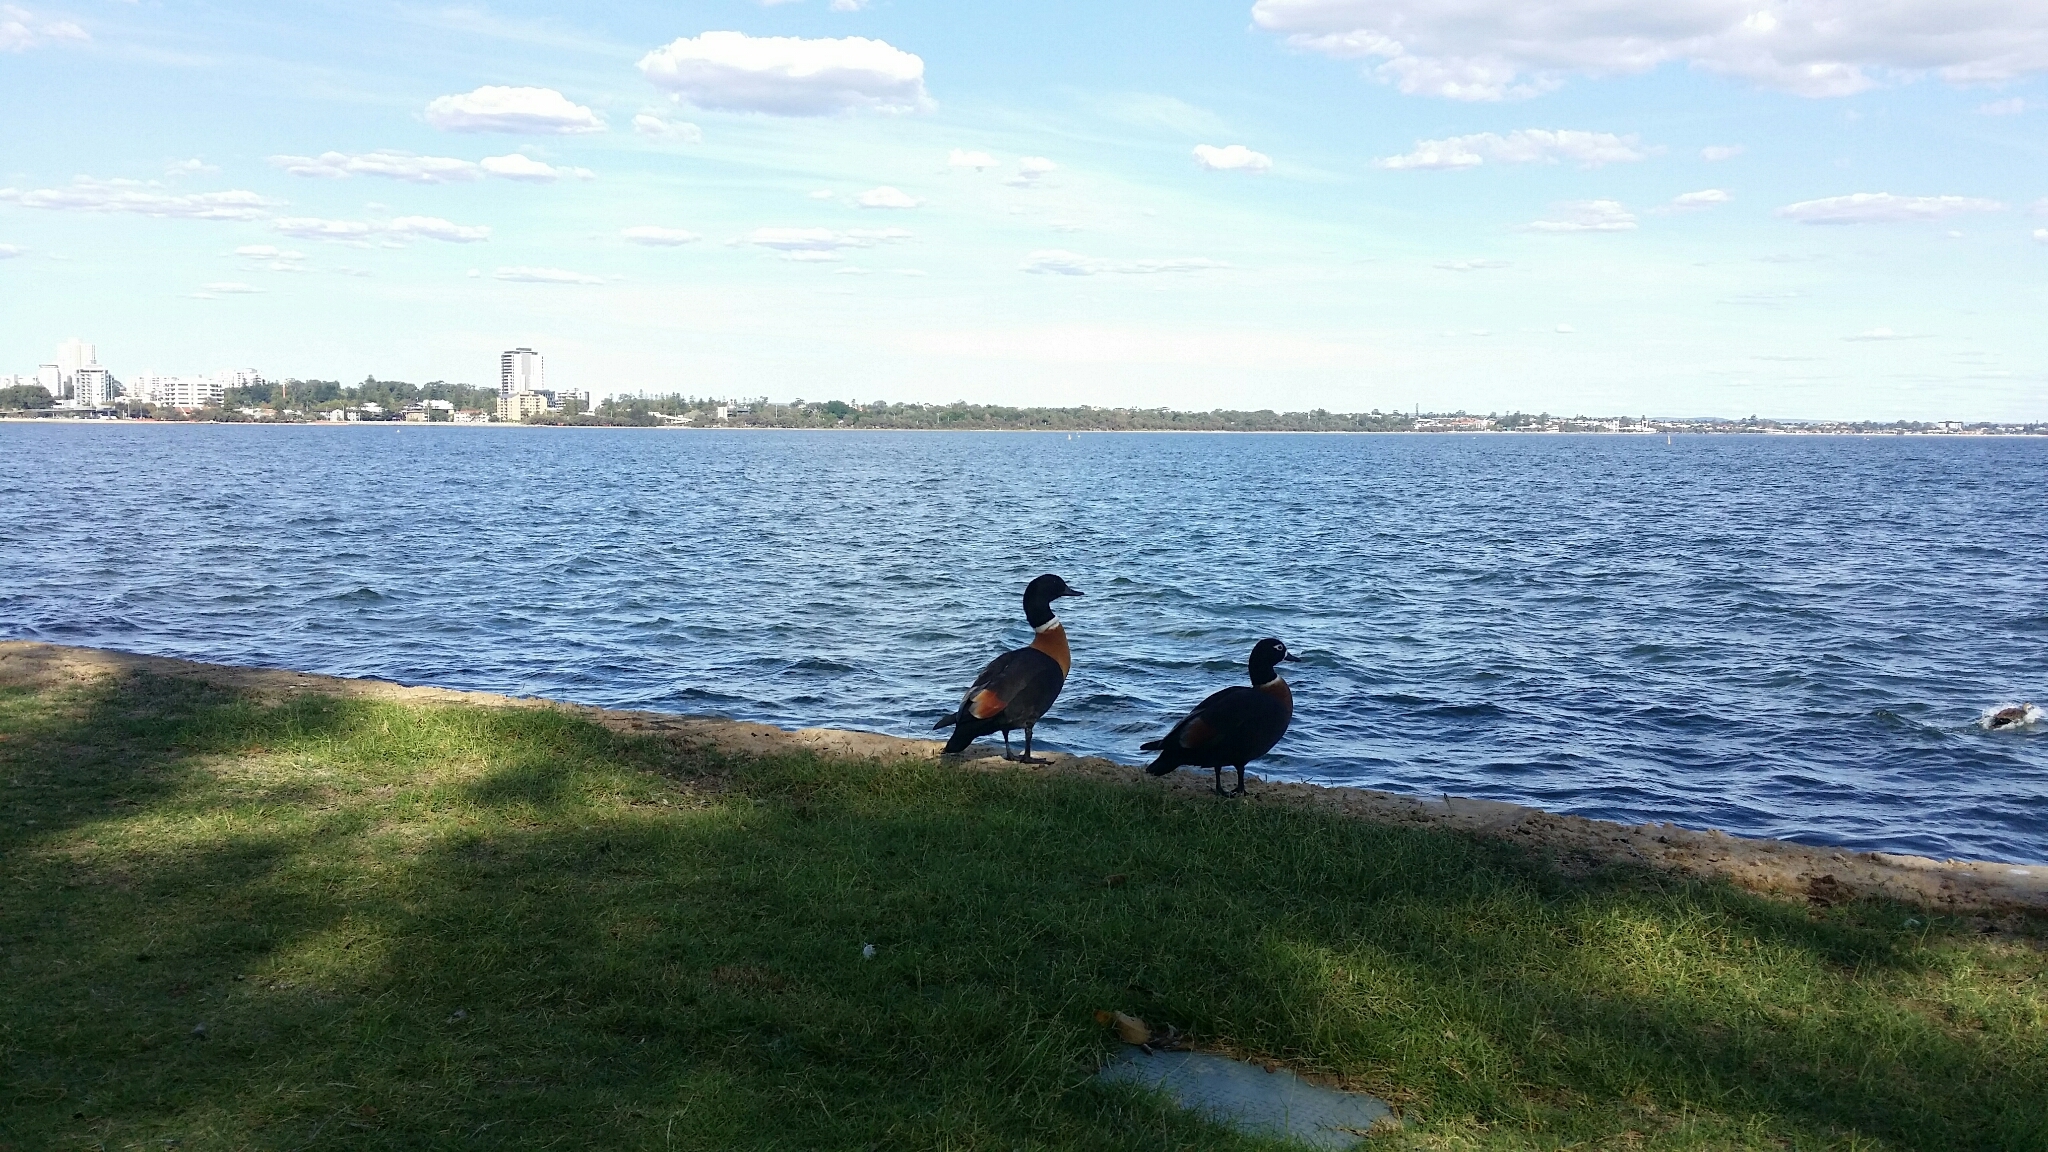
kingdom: Animalia
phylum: Chordata
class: Aves
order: Anseriformes
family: Anatidae
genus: Tadorna
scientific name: Tadorna tadornoides
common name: Australian shelduck
